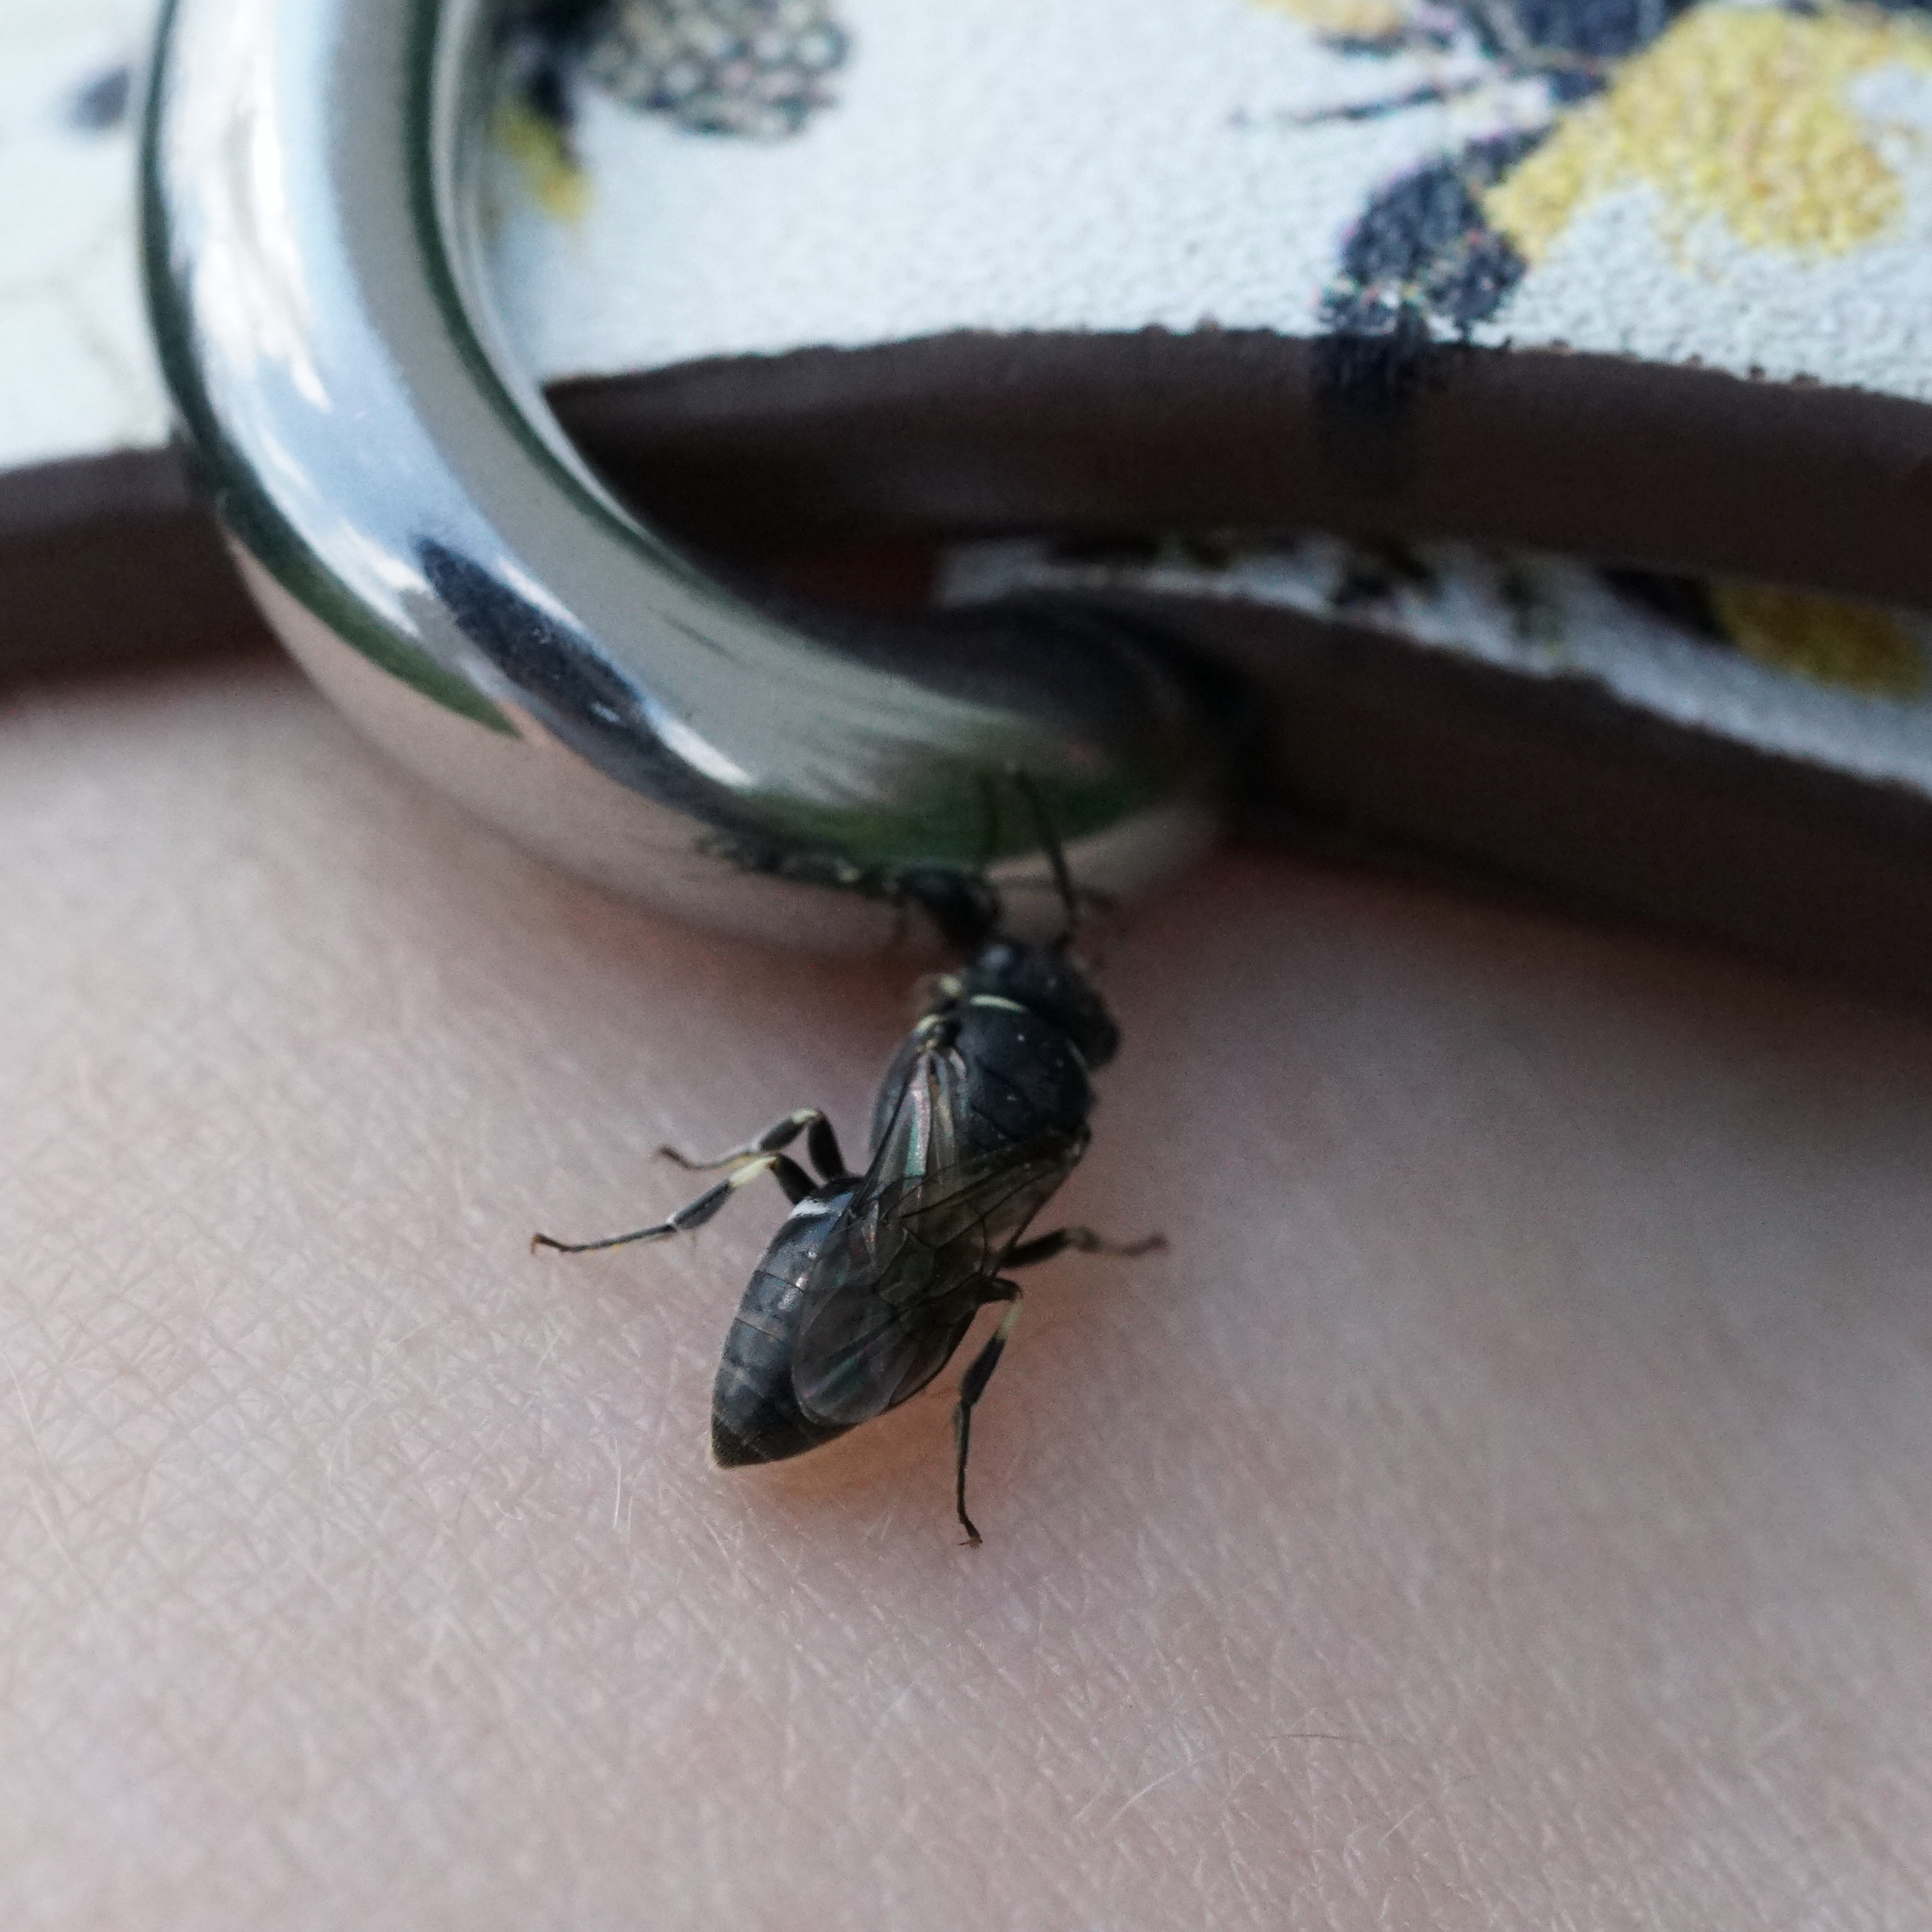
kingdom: Animalia
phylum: Arthropoda
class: Insecta
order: Hymenoptera
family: Colletidae
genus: Hylaeus
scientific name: Hylaeus
